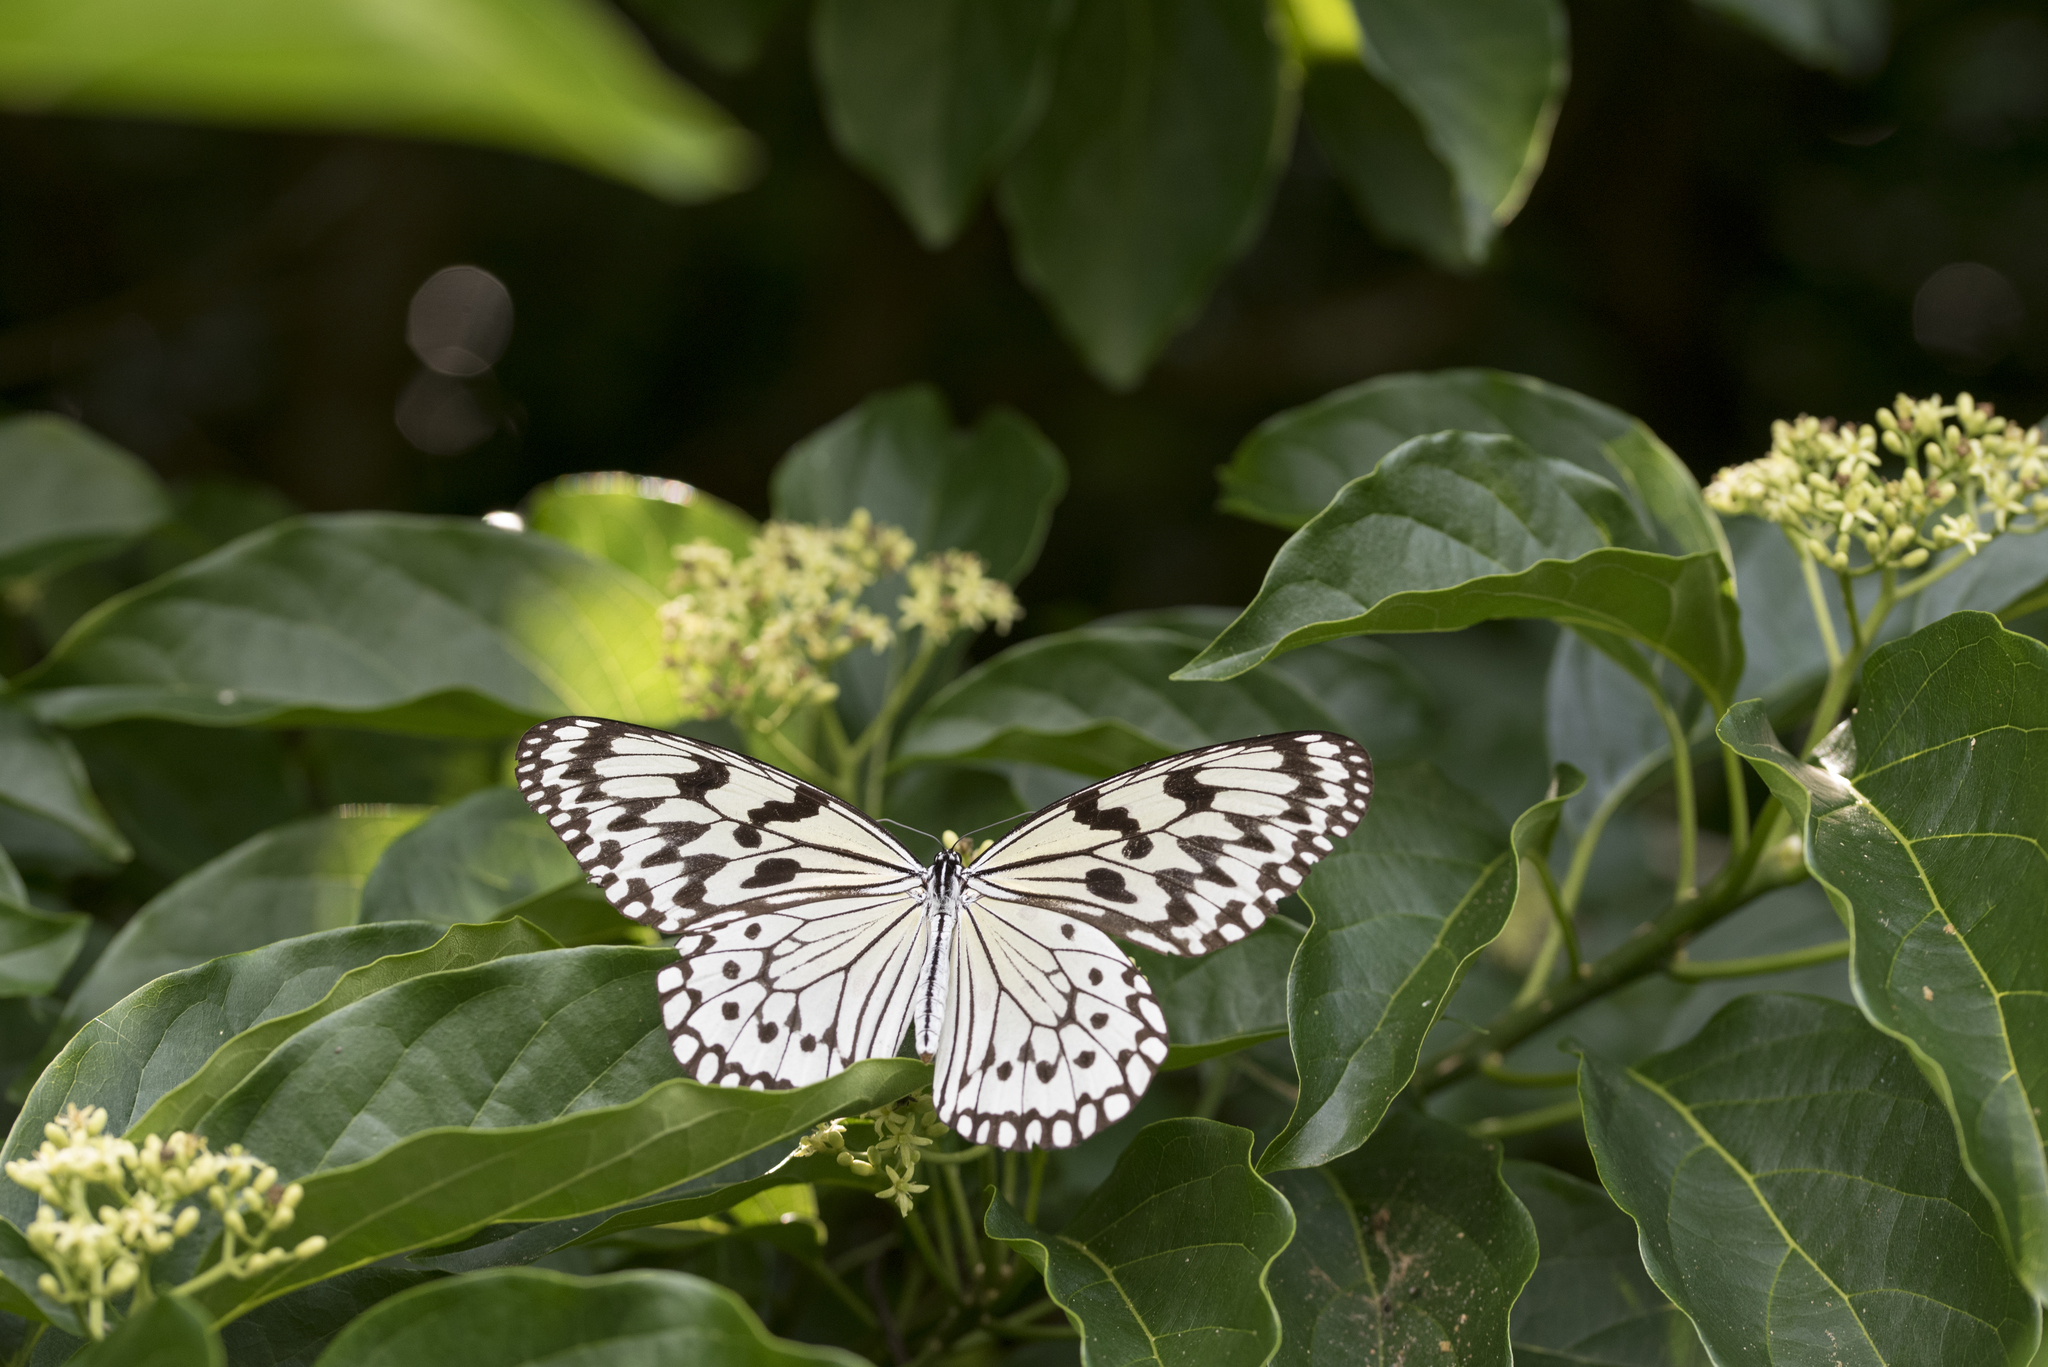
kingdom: Animalia
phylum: Arthropoda
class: Insecta
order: Lepidoptera
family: Nymphalidae
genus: Idea
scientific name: Idea leuconoe
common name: Rice paper butterfly
